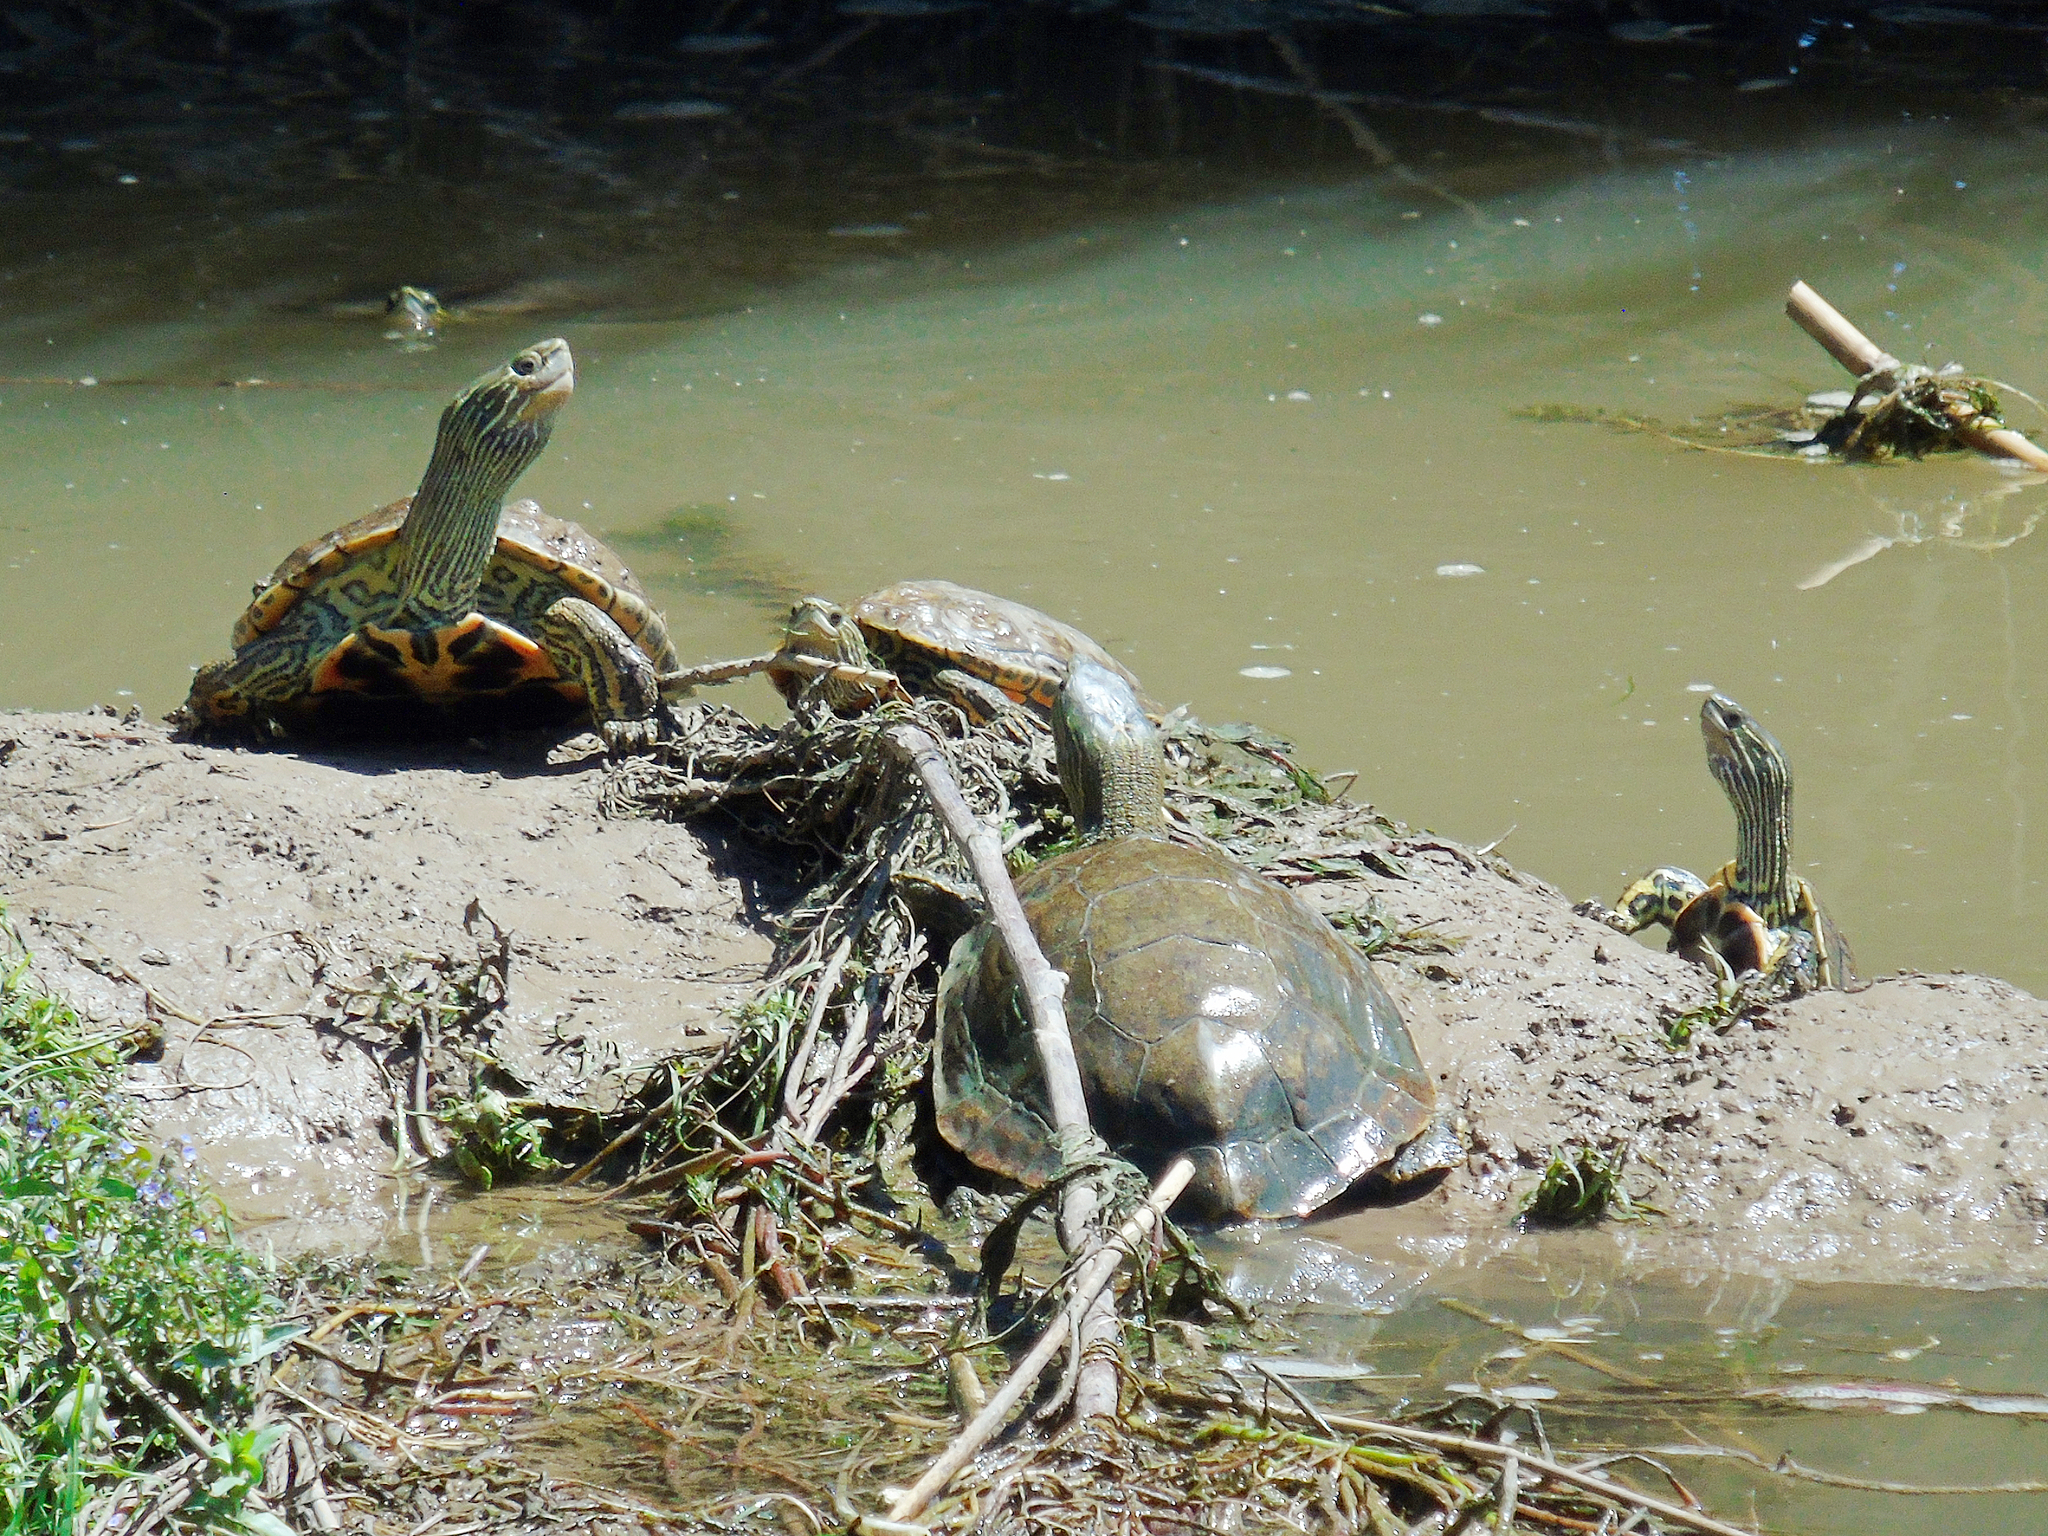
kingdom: Animalia
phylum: Chordata
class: Testudines
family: Geoemydidae
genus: Mauremys
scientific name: Mauremys caspica
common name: Caspian turtle
